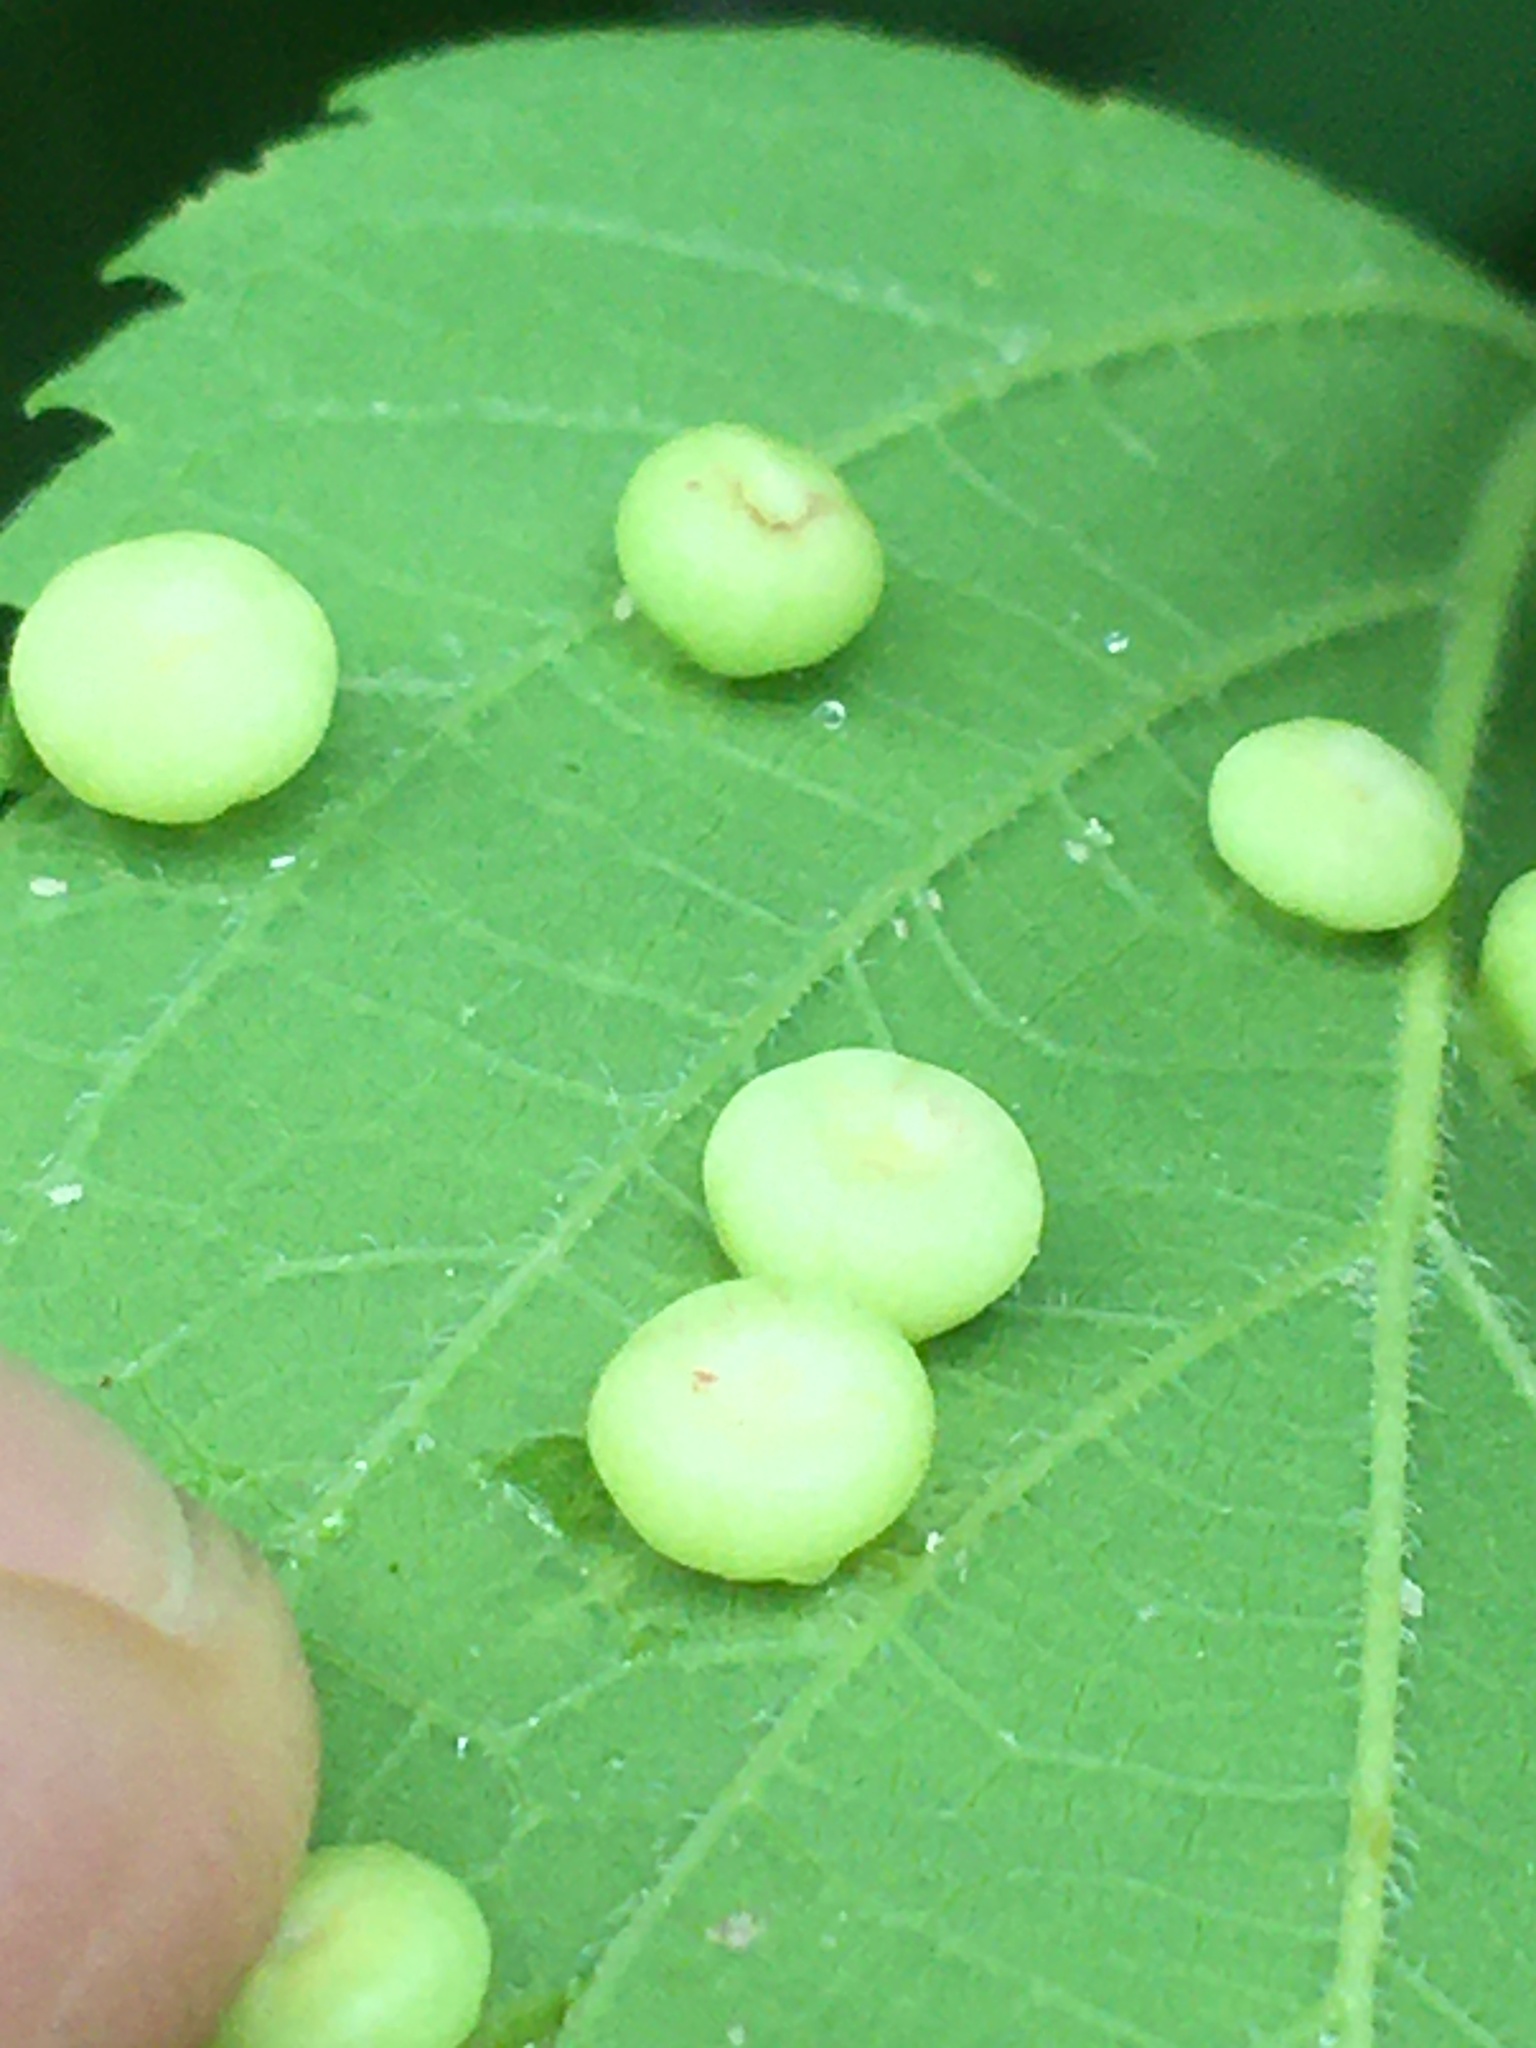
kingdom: Animalia
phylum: Arthropoda
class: Insecta
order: Hemiptera
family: Aphalaridae
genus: Pachypsylla
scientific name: Pachypsylla celtidismamma
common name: Hackberry nipplegall psyllid
